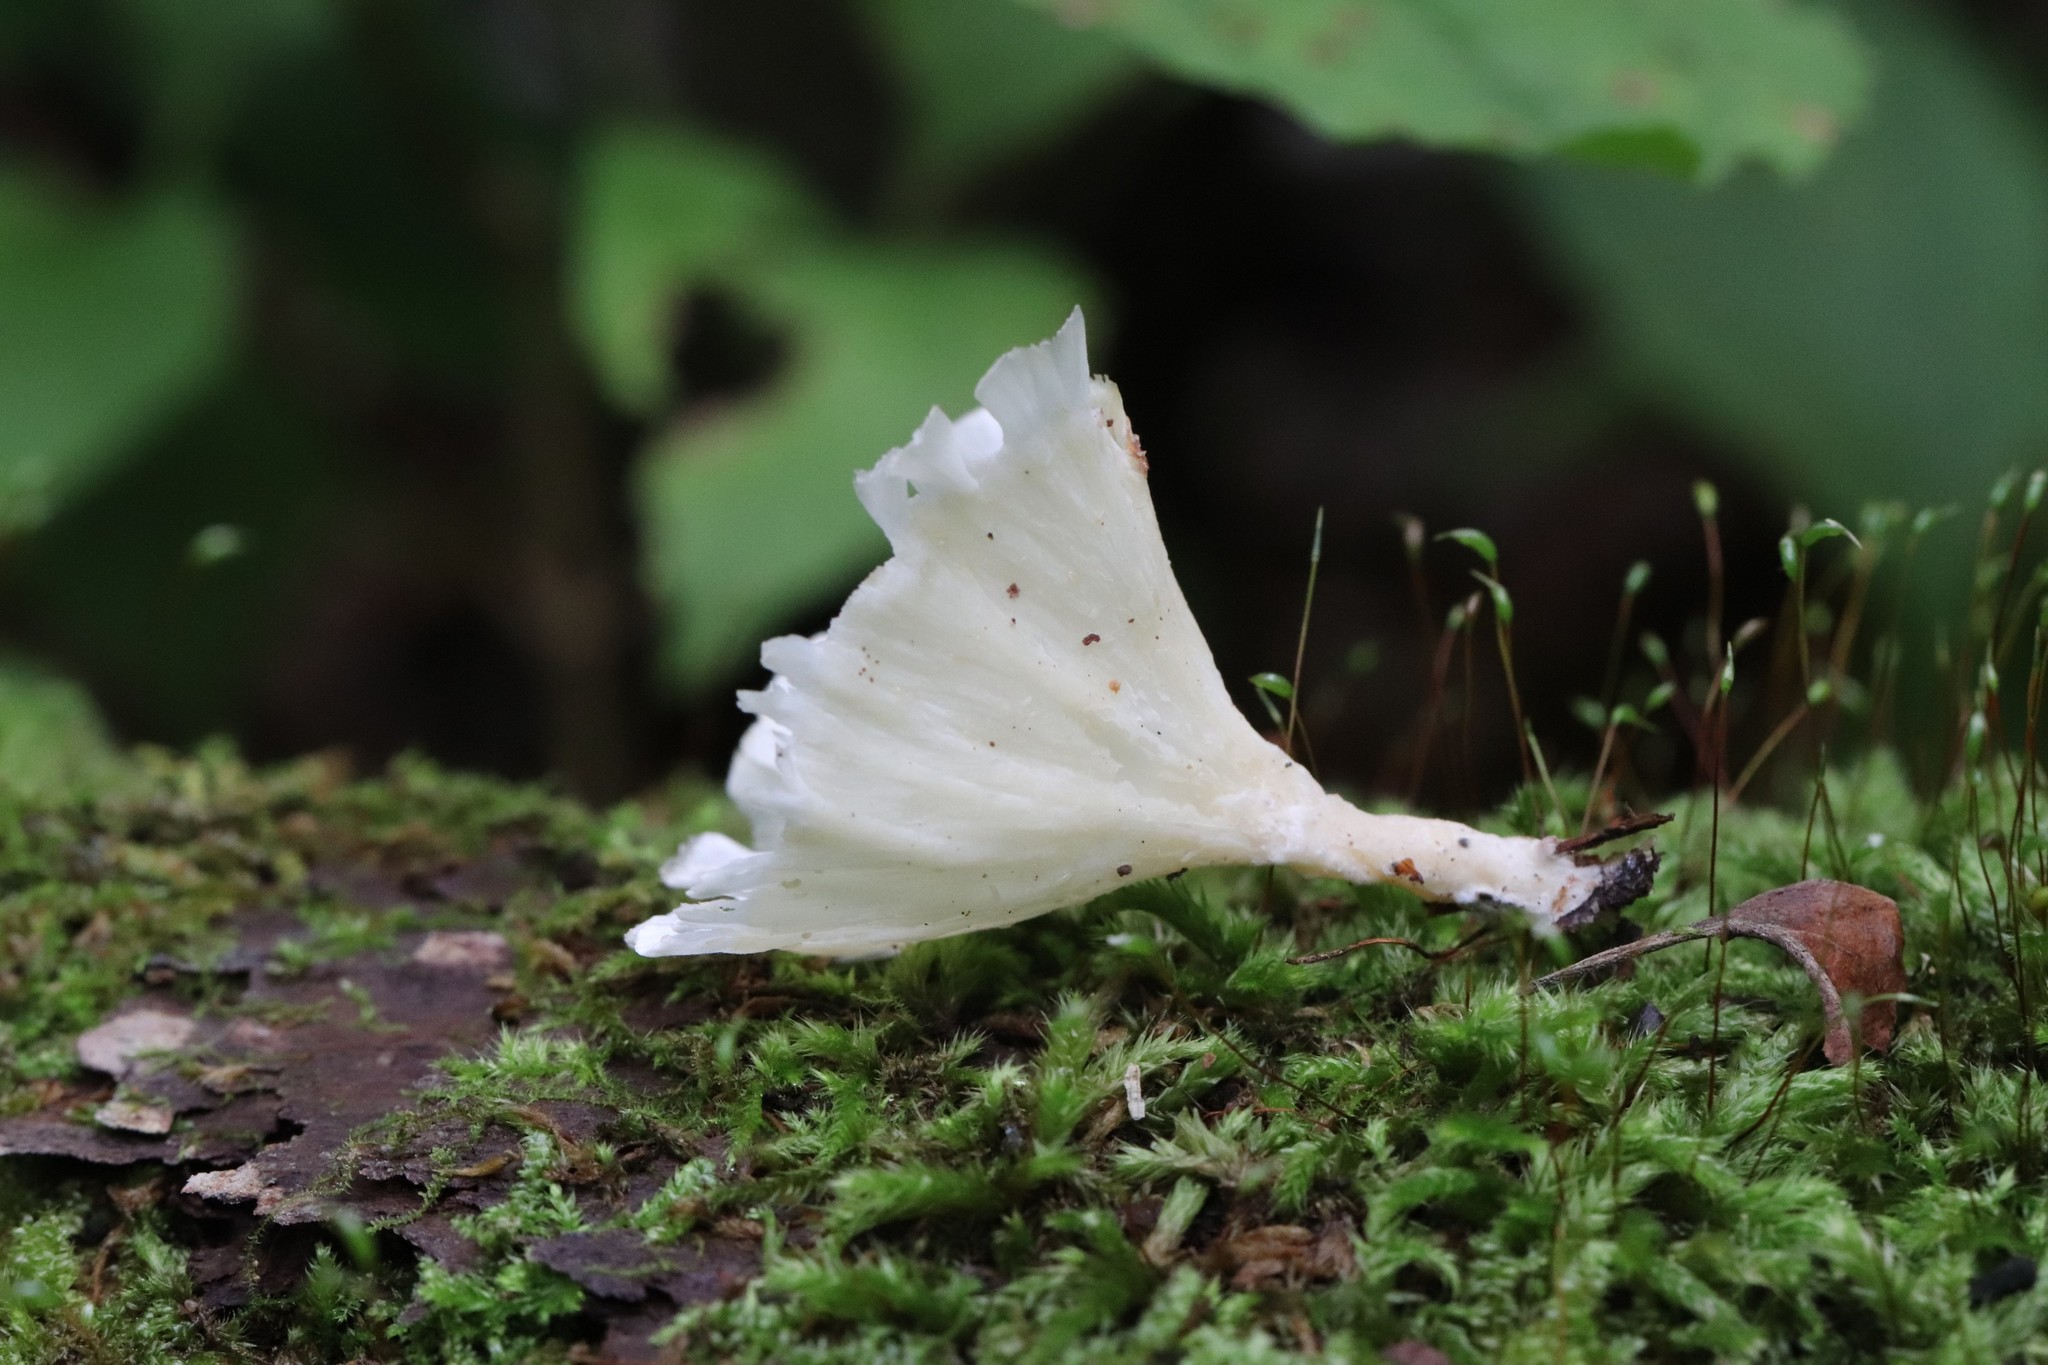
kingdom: Fungi
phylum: Basidiomycota
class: Agaricomycetes
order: Hymenochaetales
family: Rickenellaceae
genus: Cotylidia
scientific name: Cotylidia diaphana
